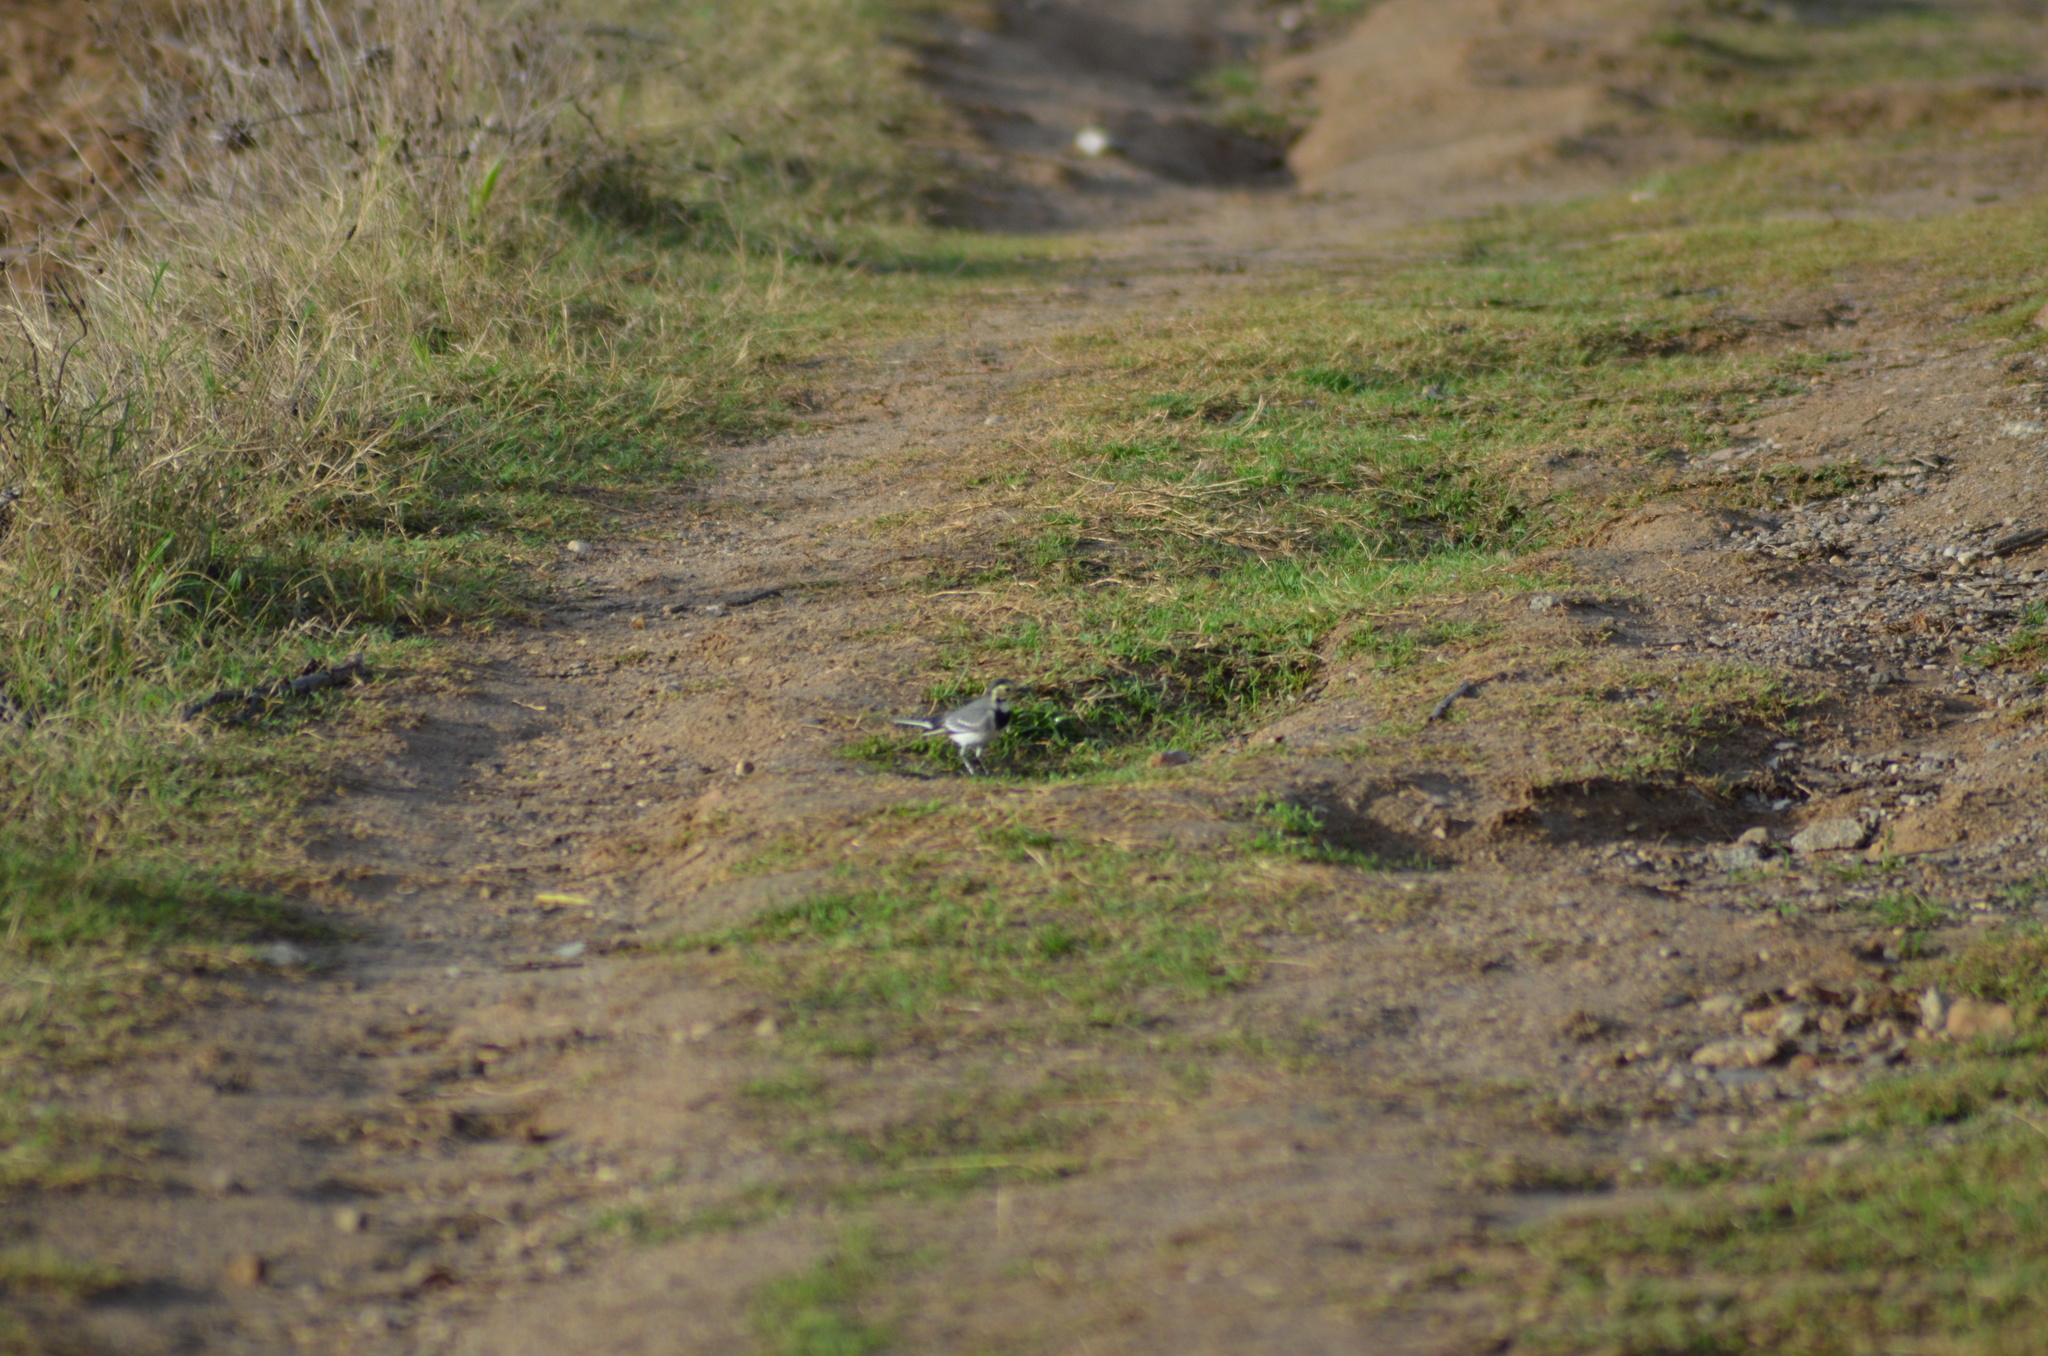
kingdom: Animalia
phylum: Chordata
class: Aves
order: Passeriformes
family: Motacillidae
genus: Motacilla
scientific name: Motacilla alba
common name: White wagtail
